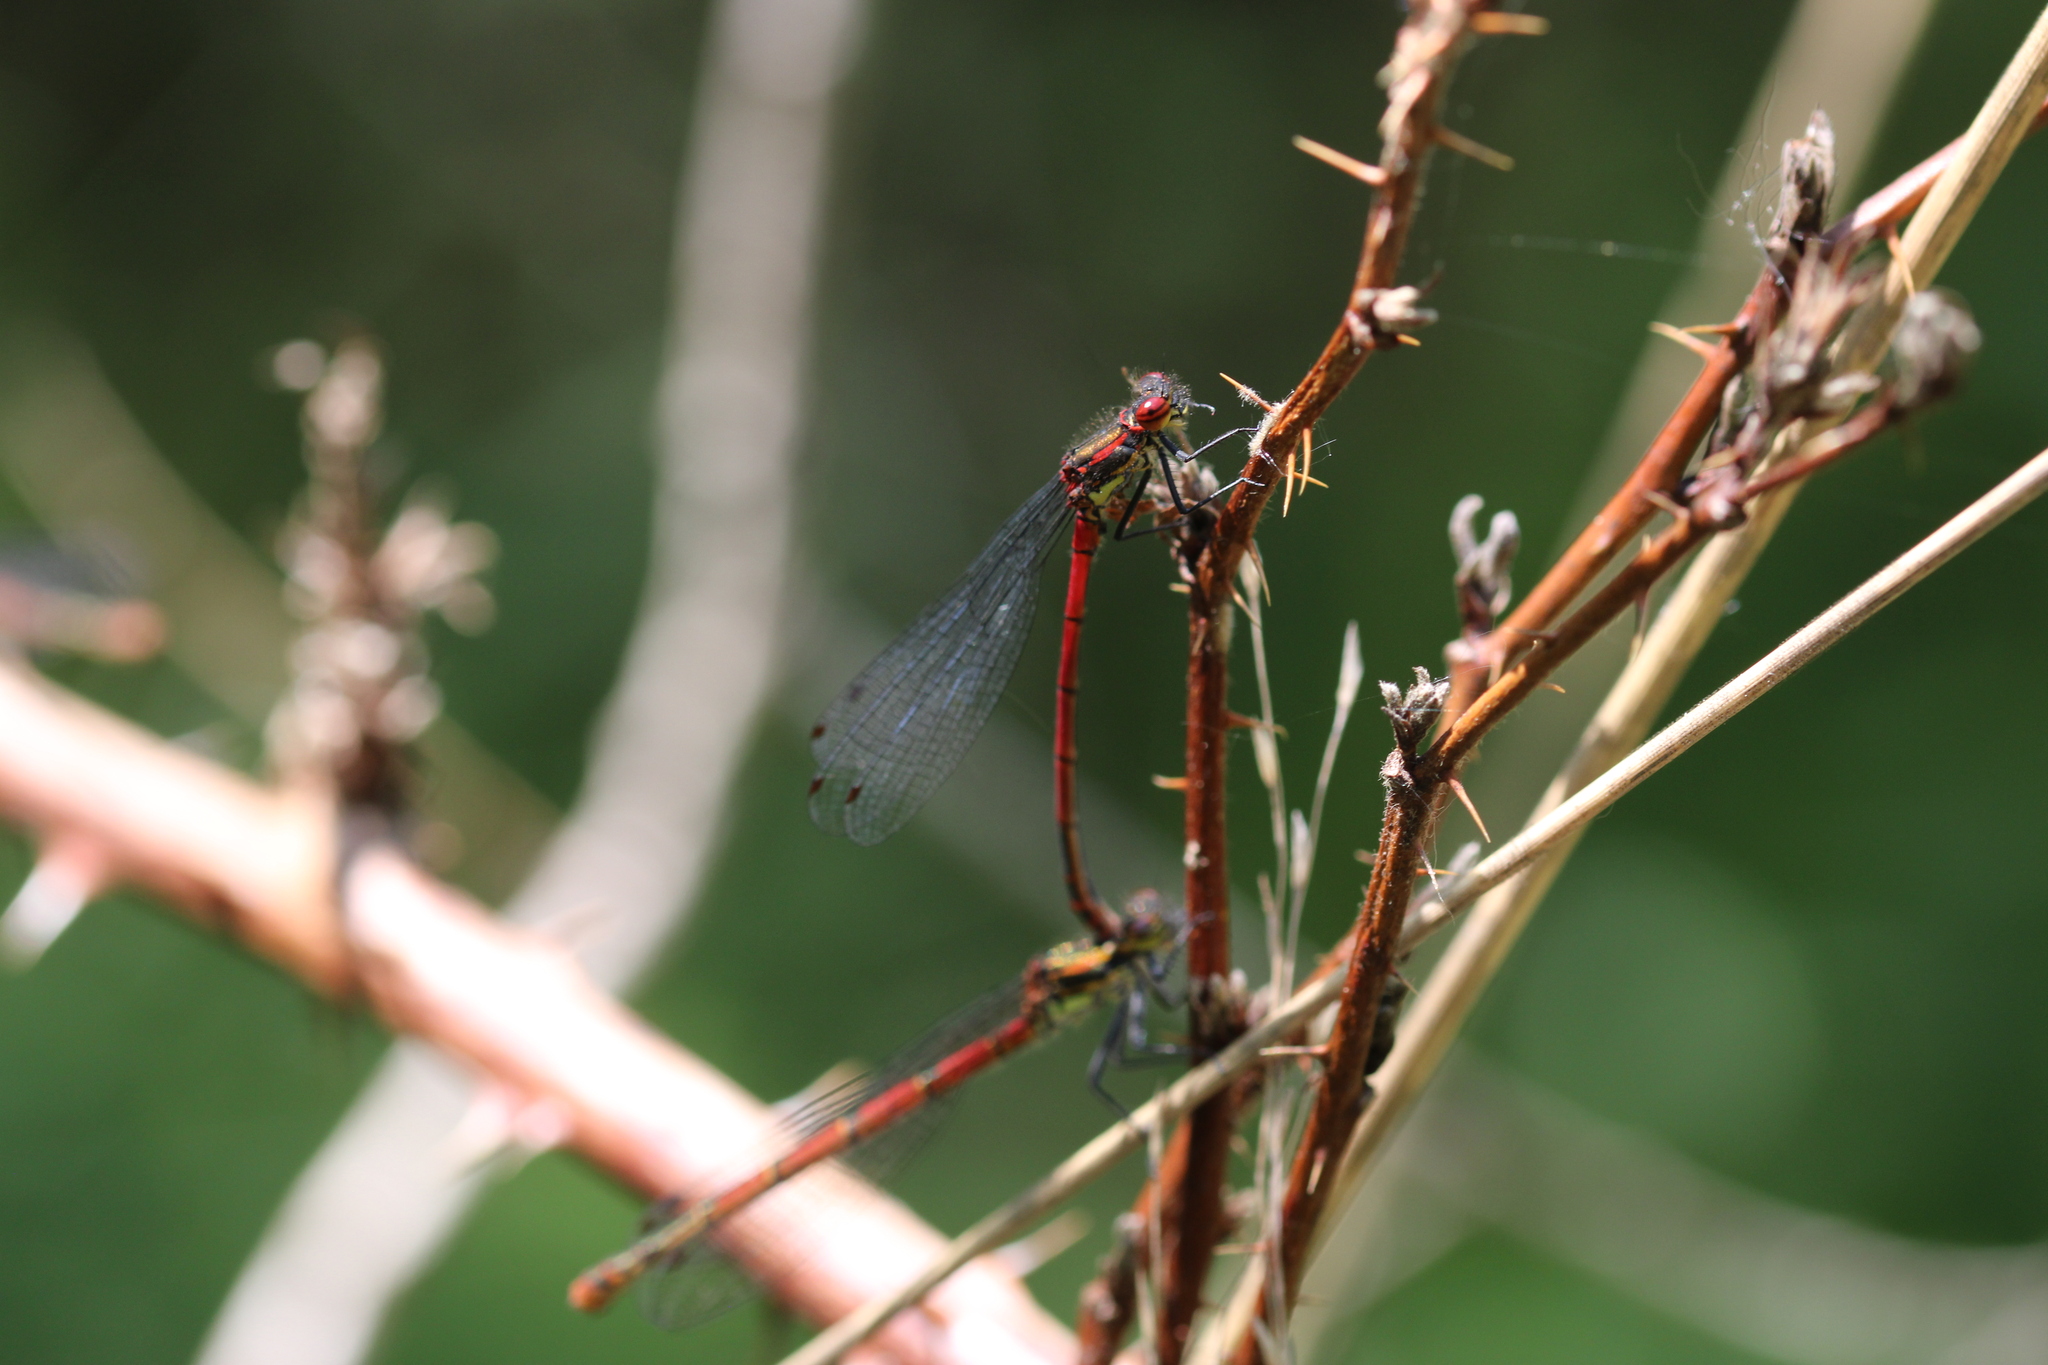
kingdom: Animalia
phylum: Arthropoda
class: Insecta
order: Odonata
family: Coenagrionidae
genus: Pyrrhosoma
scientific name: Pyrrhosoma nymphula
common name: Large red damsel
